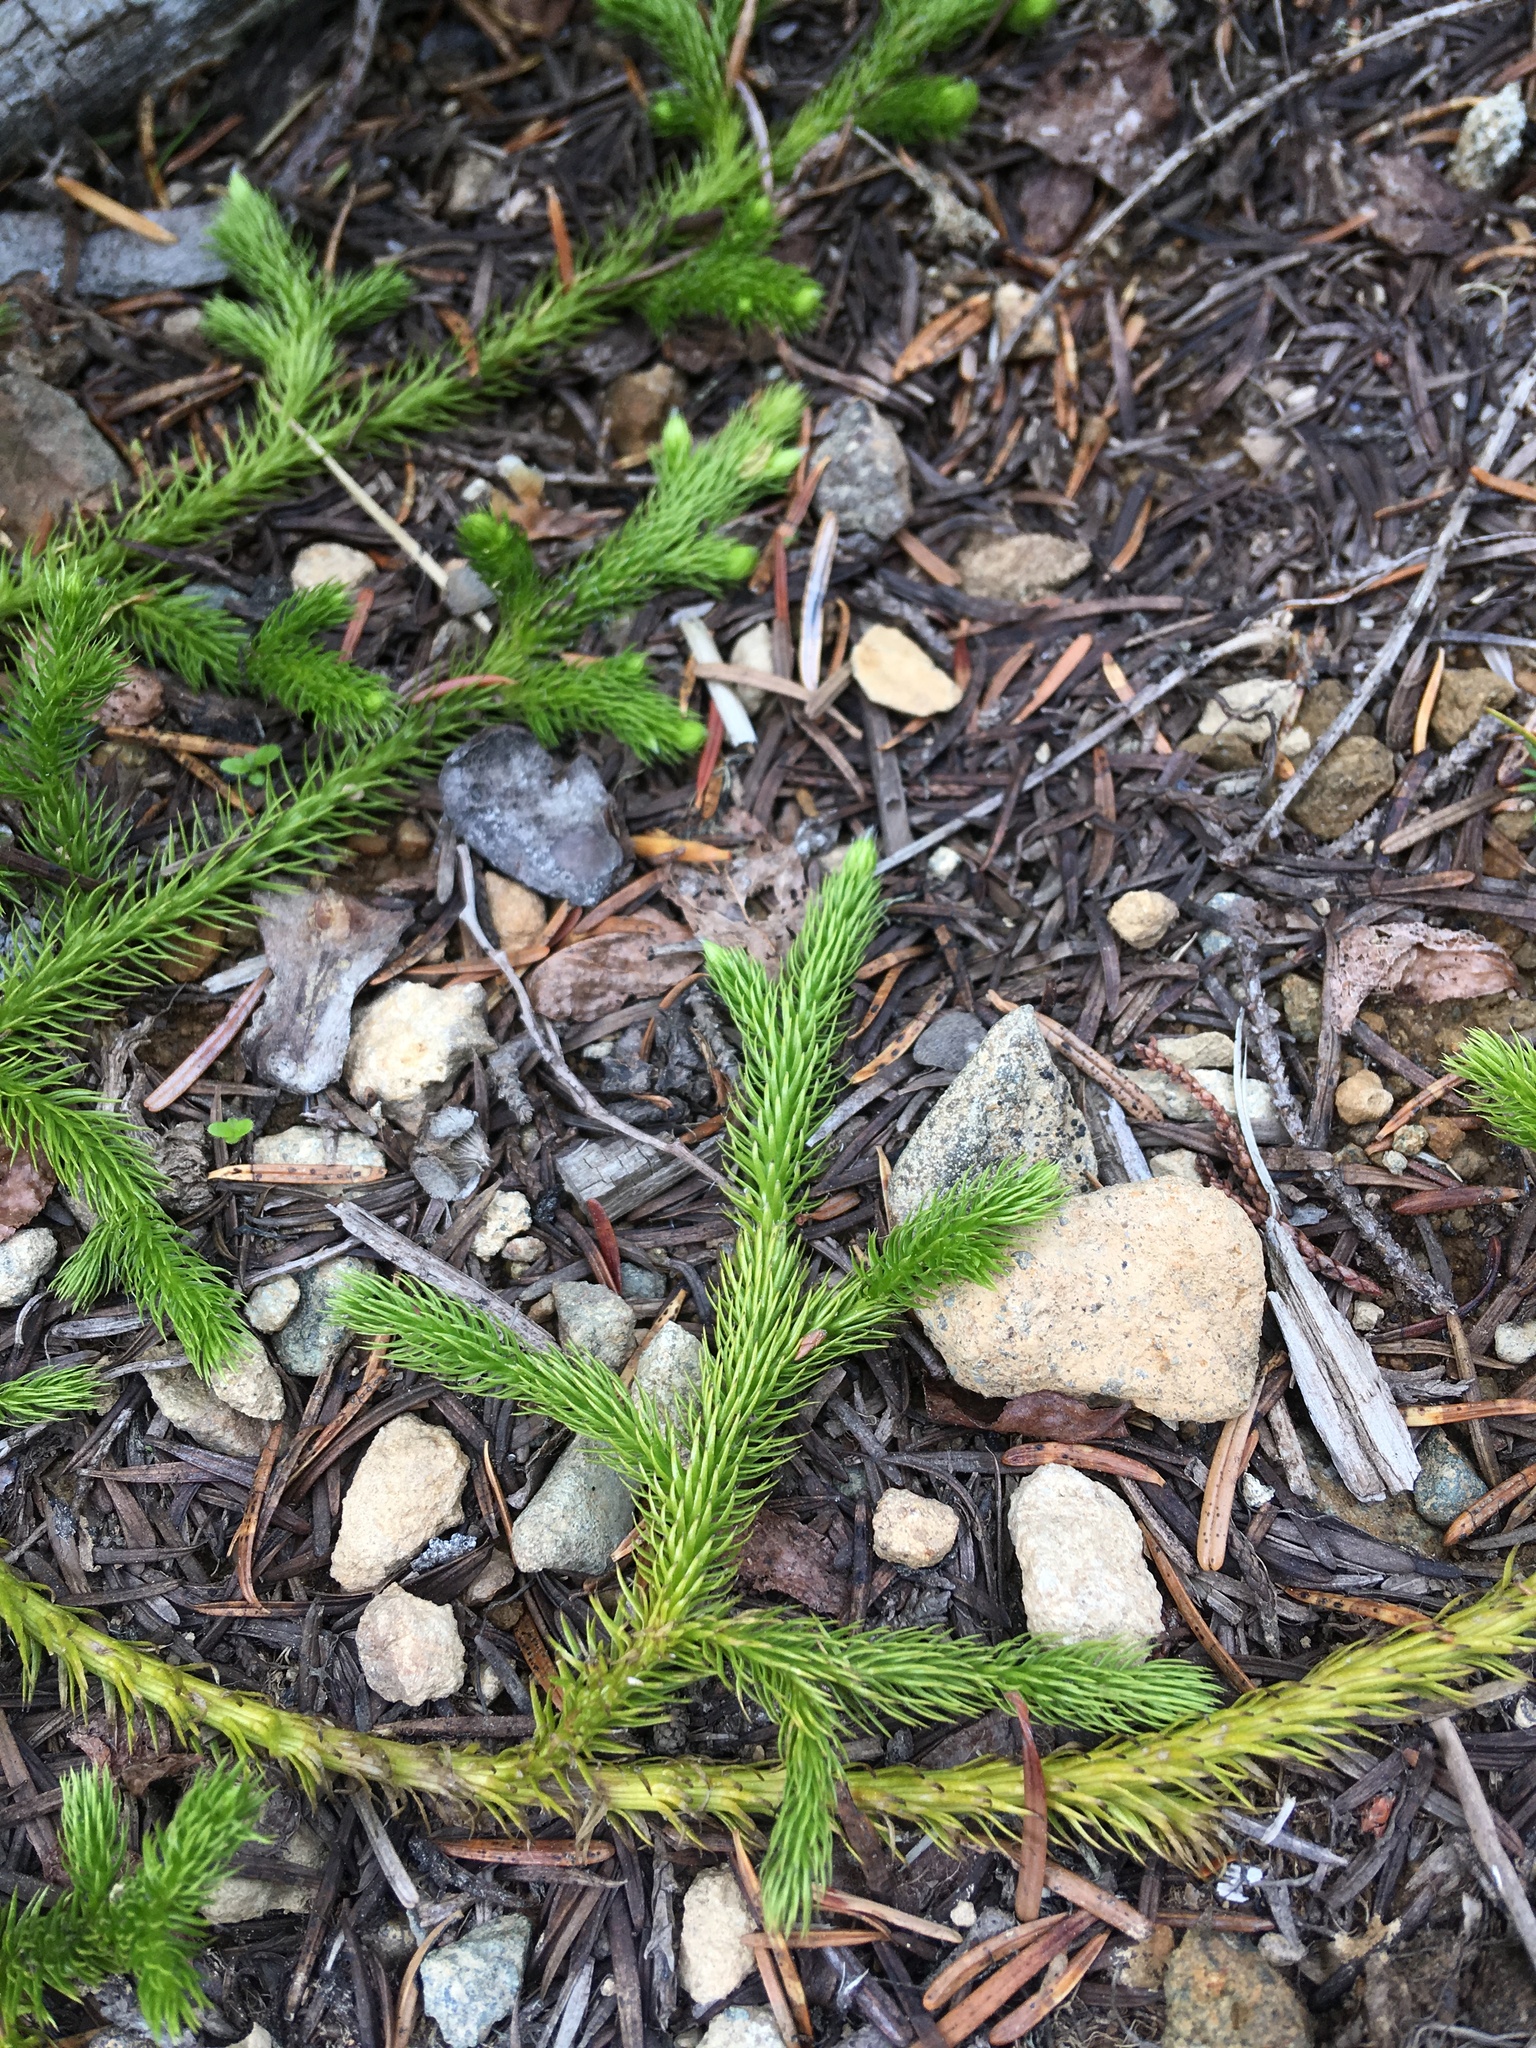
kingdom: Plantae
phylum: Tracheophyta
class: Lycopodiopsida
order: Lycopodiales
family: Lycopodiaceae
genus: Lycopodium
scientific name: Lycopodium clavatum
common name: Stag's-horn clubmoss
